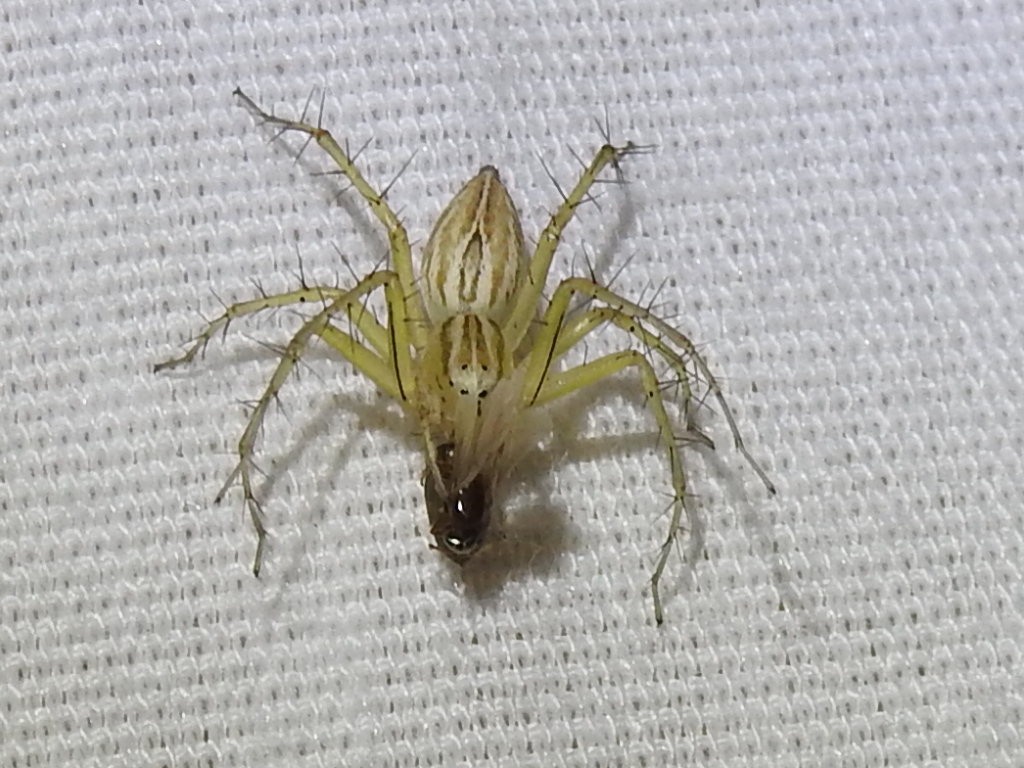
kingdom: Animalia
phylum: Arthropoda
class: Arachnida
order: Araneae
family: Oxyopidae
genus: Oxyopes
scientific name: Oxyopes salticus
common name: Lynx spiders
